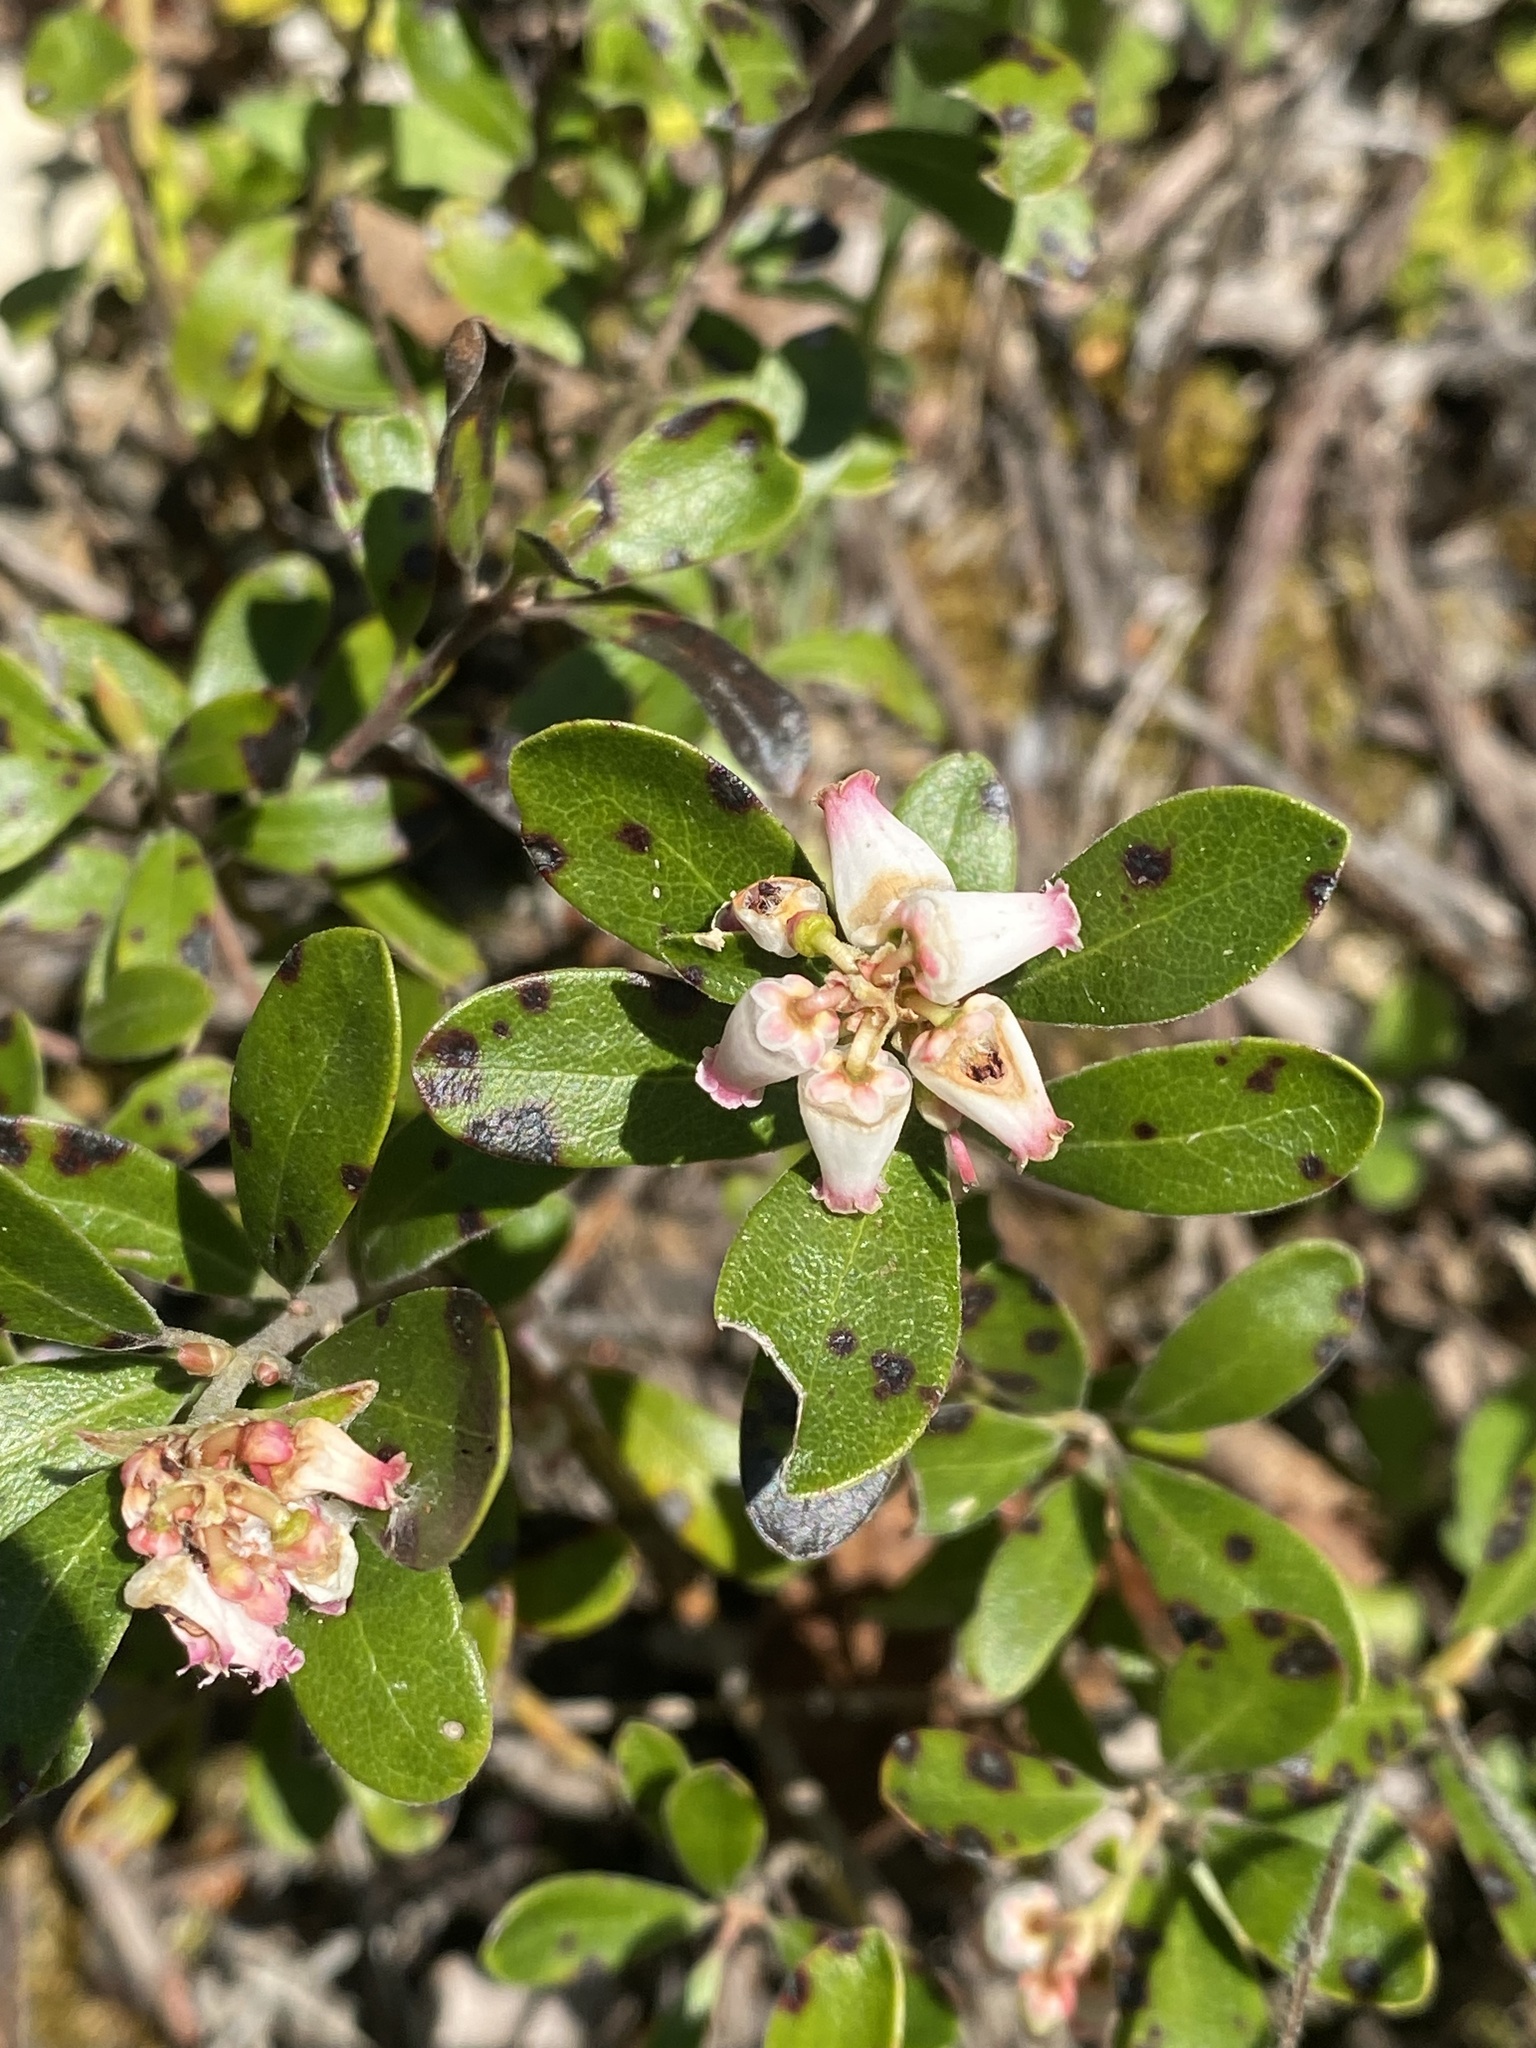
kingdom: Plantae
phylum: Tracheophyta
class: Magnoliopsida
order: Ericales
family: Ericaceae
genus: Arctostaphylos
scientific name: Arctostaphylos uva-ursi
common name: Bearberry
